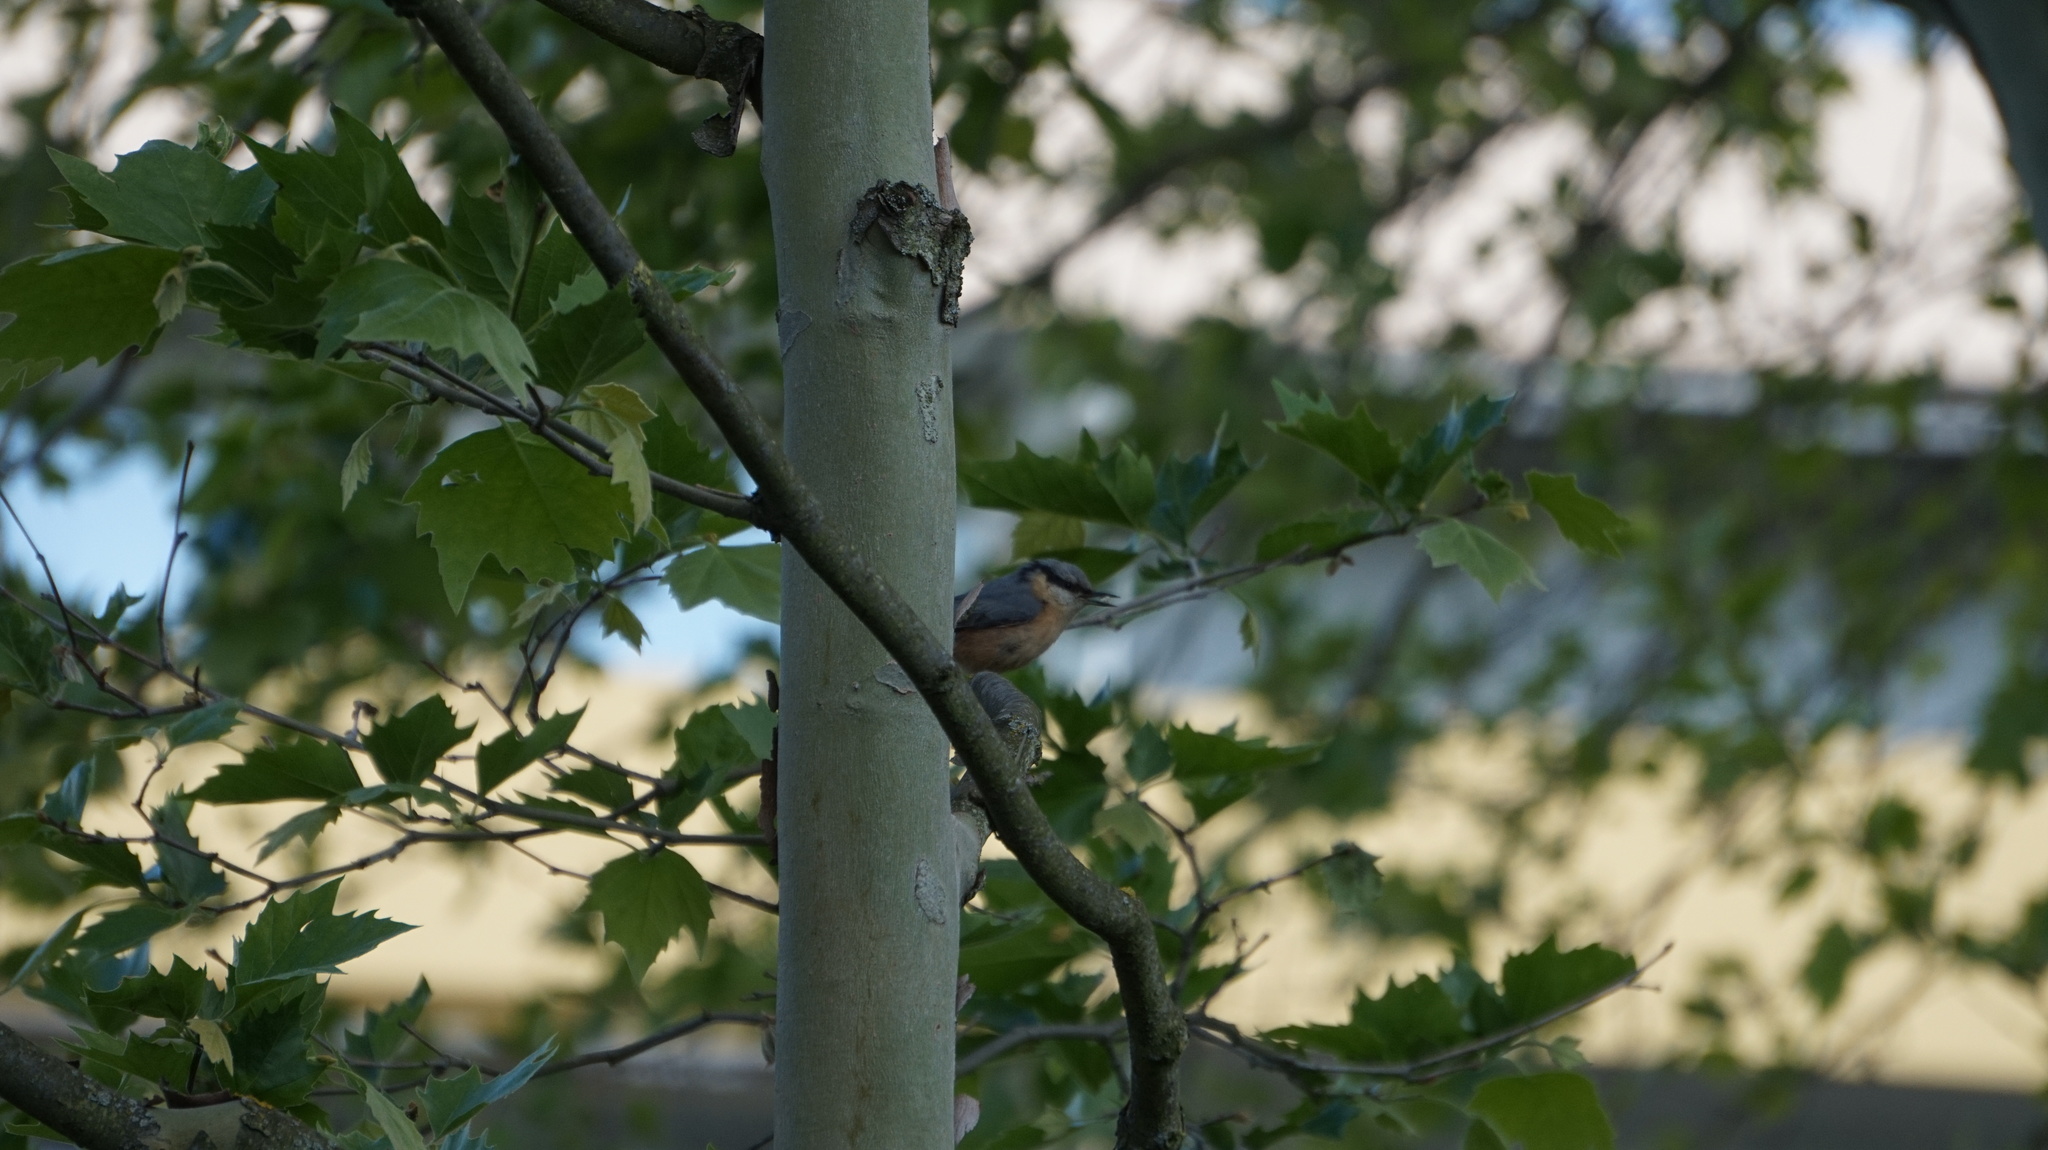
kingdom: Animalia
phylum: Chordata
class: Aves
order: Passeriformes
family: Sittidae
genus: Sitta
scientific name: Sitta europaea
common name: Eurasian nuthatch
